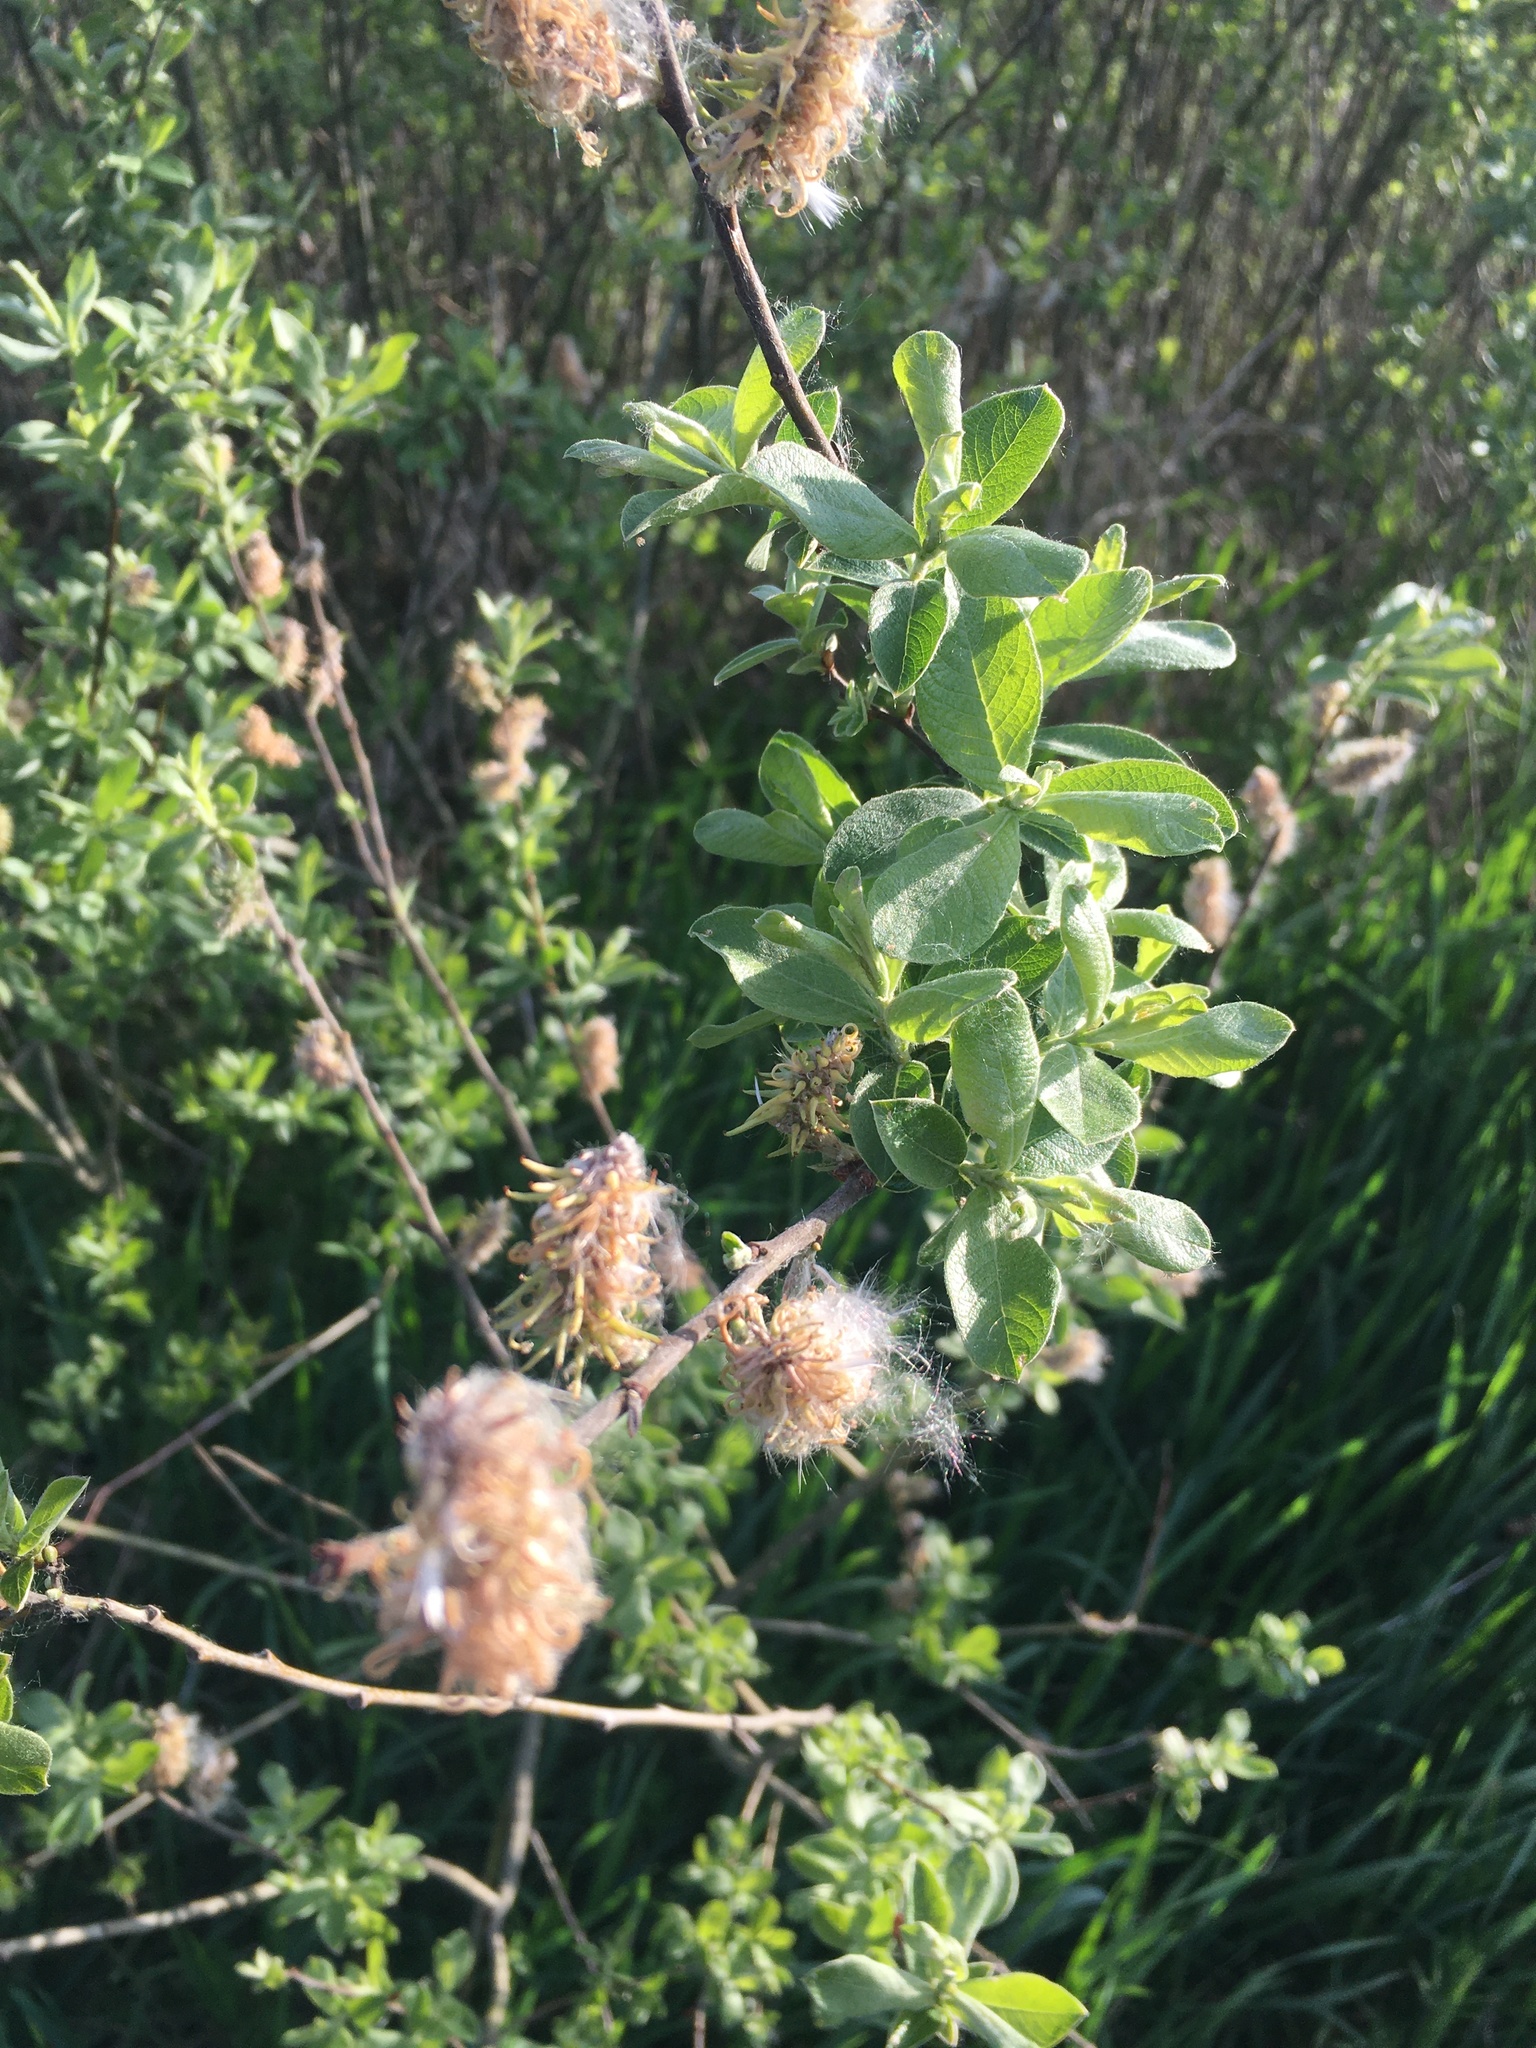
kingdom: Plantae
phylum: Tracheophyta
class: Magnoliopsida
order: Malpighiales
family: Salicaceae
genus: Salix
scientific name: Salix cinerea
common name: Common sallow
